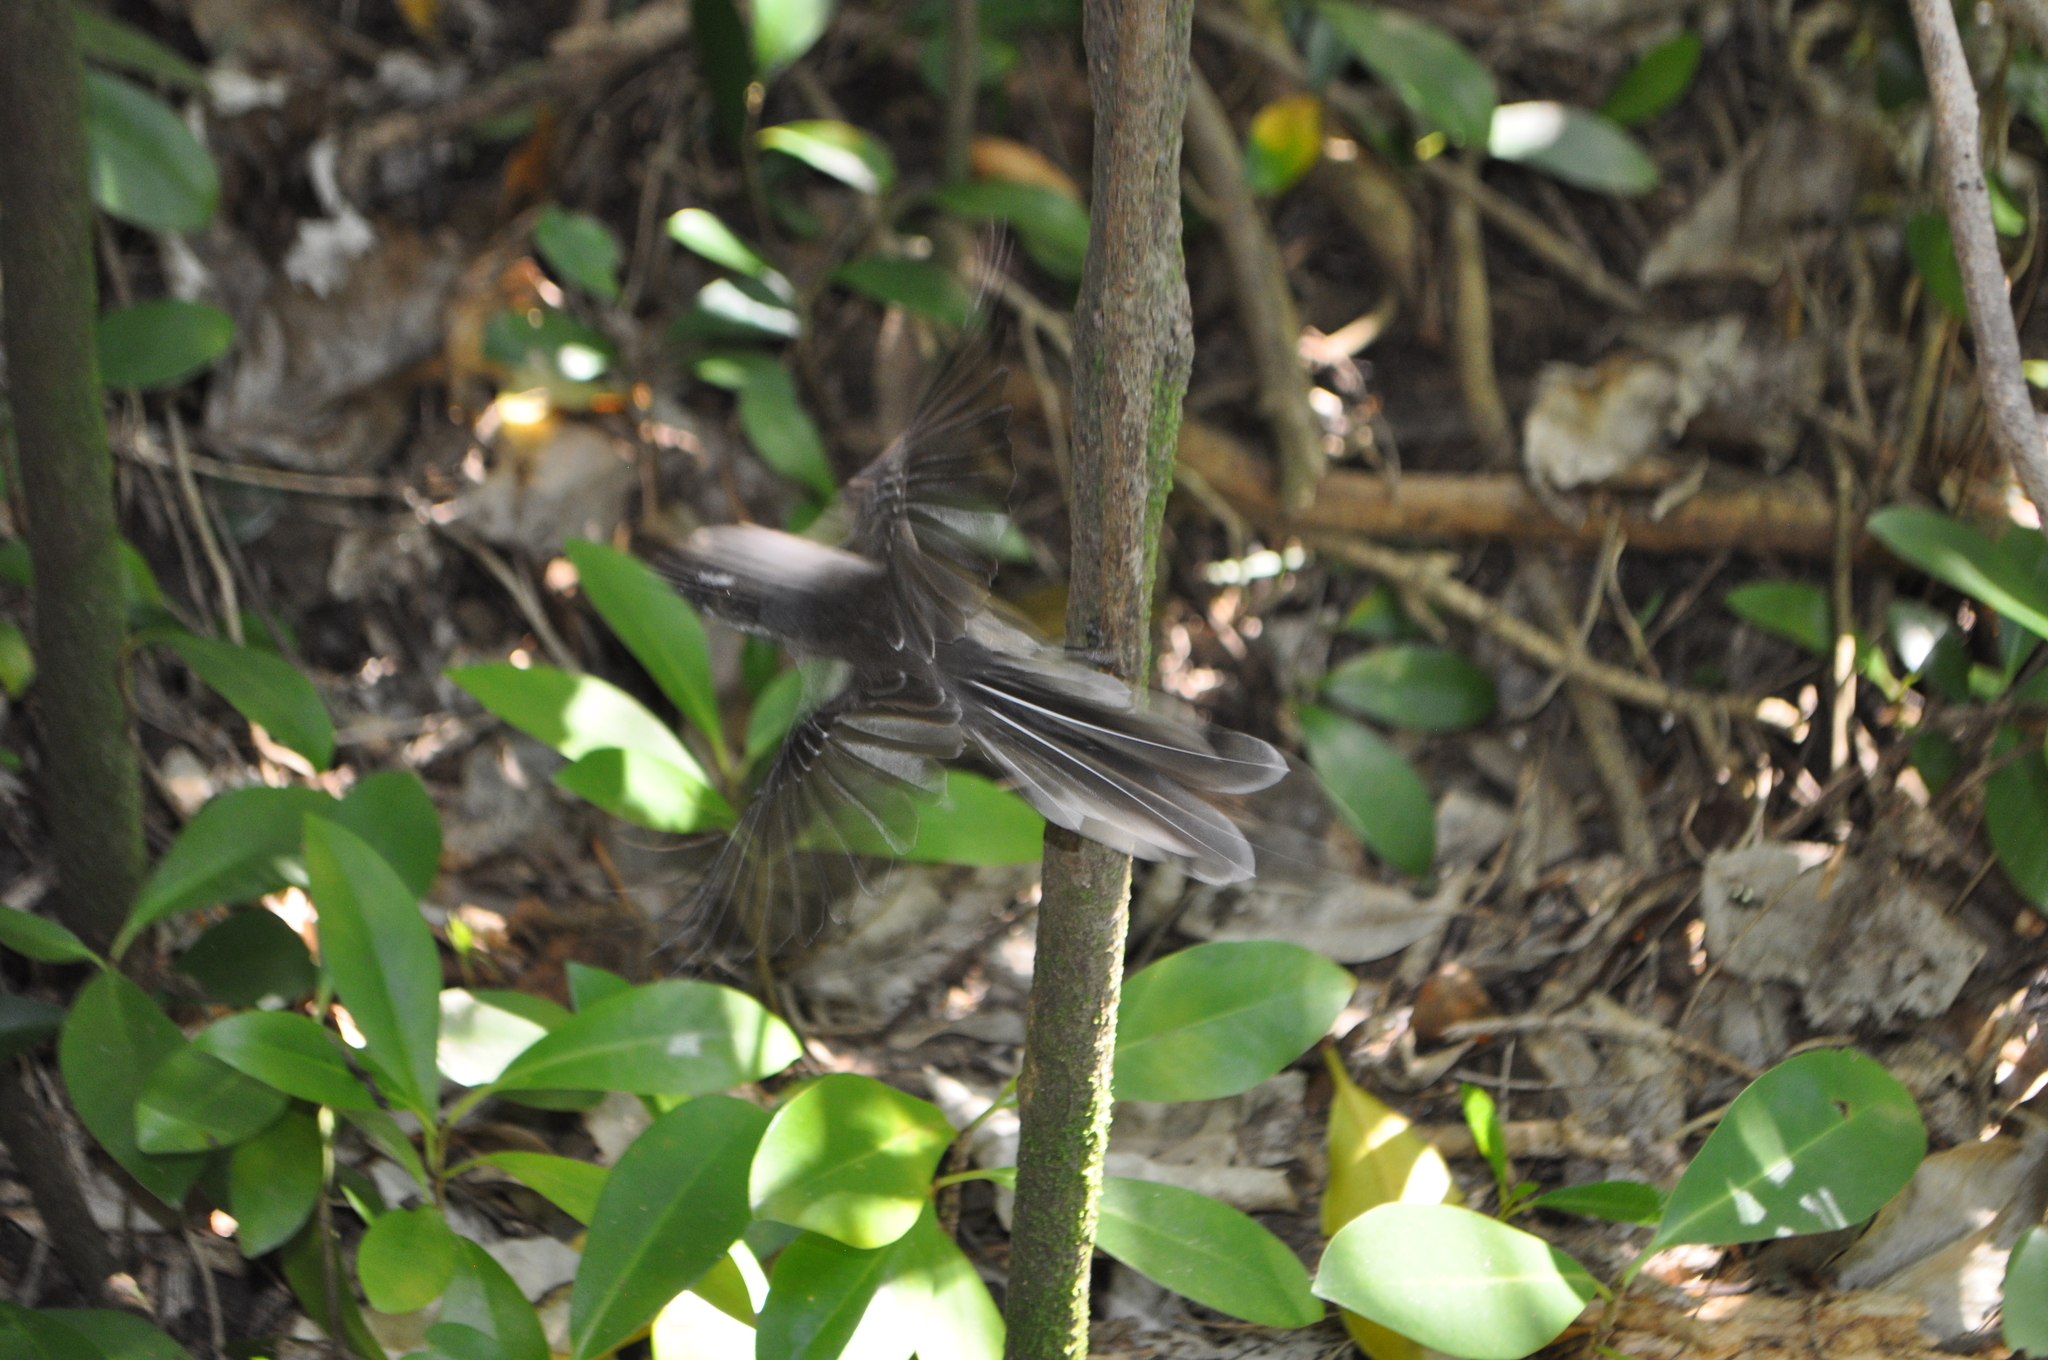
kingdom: Animalia
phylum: Chordata
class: Aves
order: Passeriformes
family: Rhipiduridae
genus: Rhipidura
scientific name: Rhipidura fuliginosa
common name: New zealand fantail
